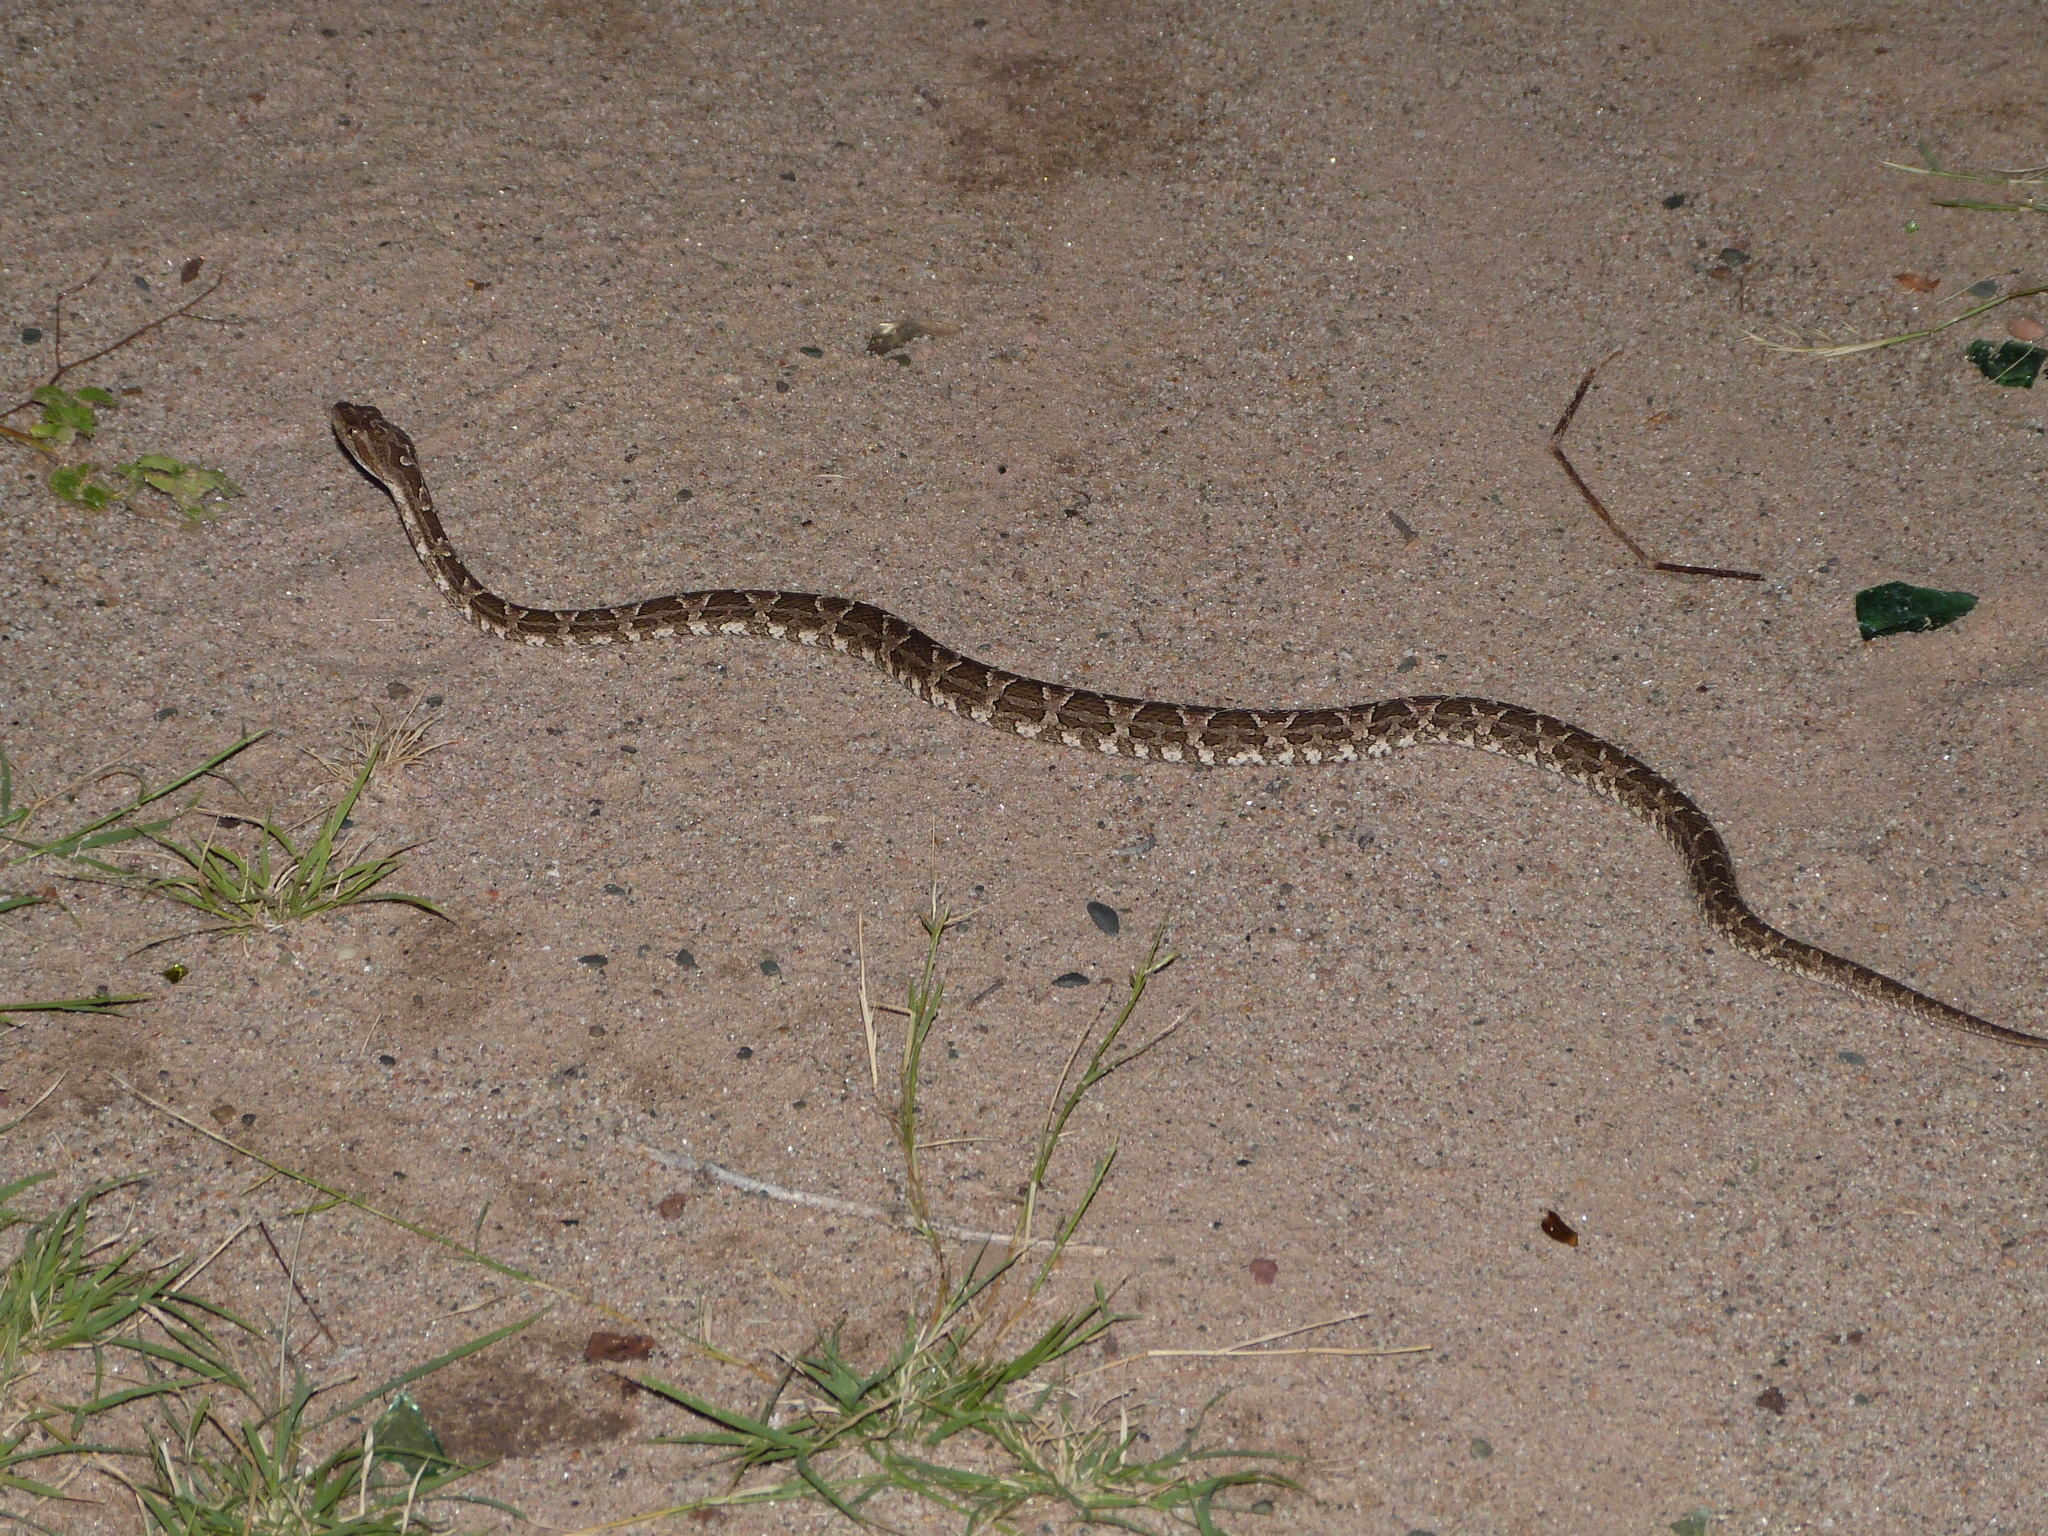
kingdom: Animalia
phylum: Chordata
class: Squamata
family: Viperidae
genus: Bothrops
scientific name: Bothrops diporus
